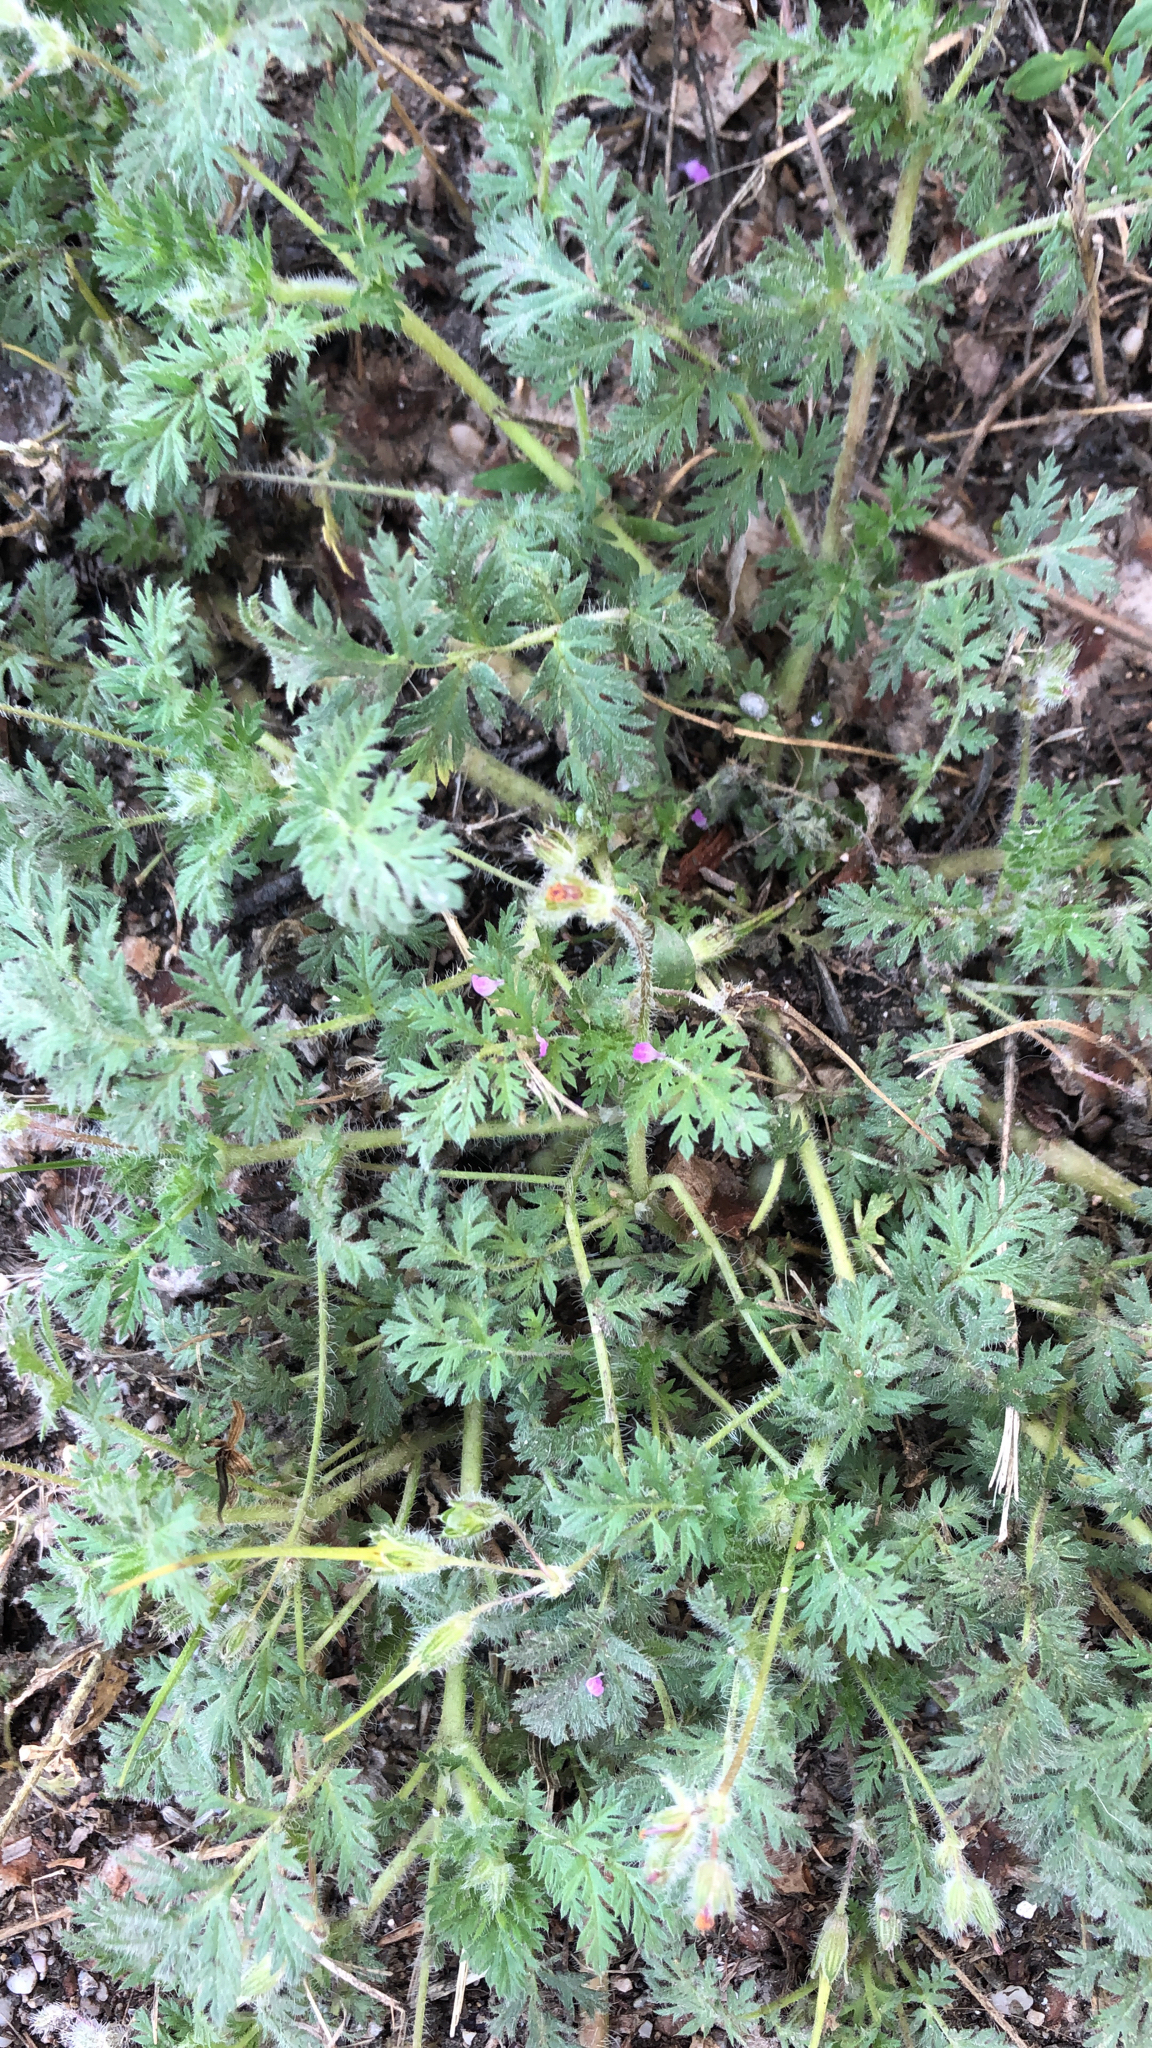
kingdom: Plantae
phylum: Tracheophyta
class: Magnoliopsida
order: Geraniales
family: Geraniaceae
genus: Erodium
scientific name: Erodium cicutarium
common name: Common stork's-bill
